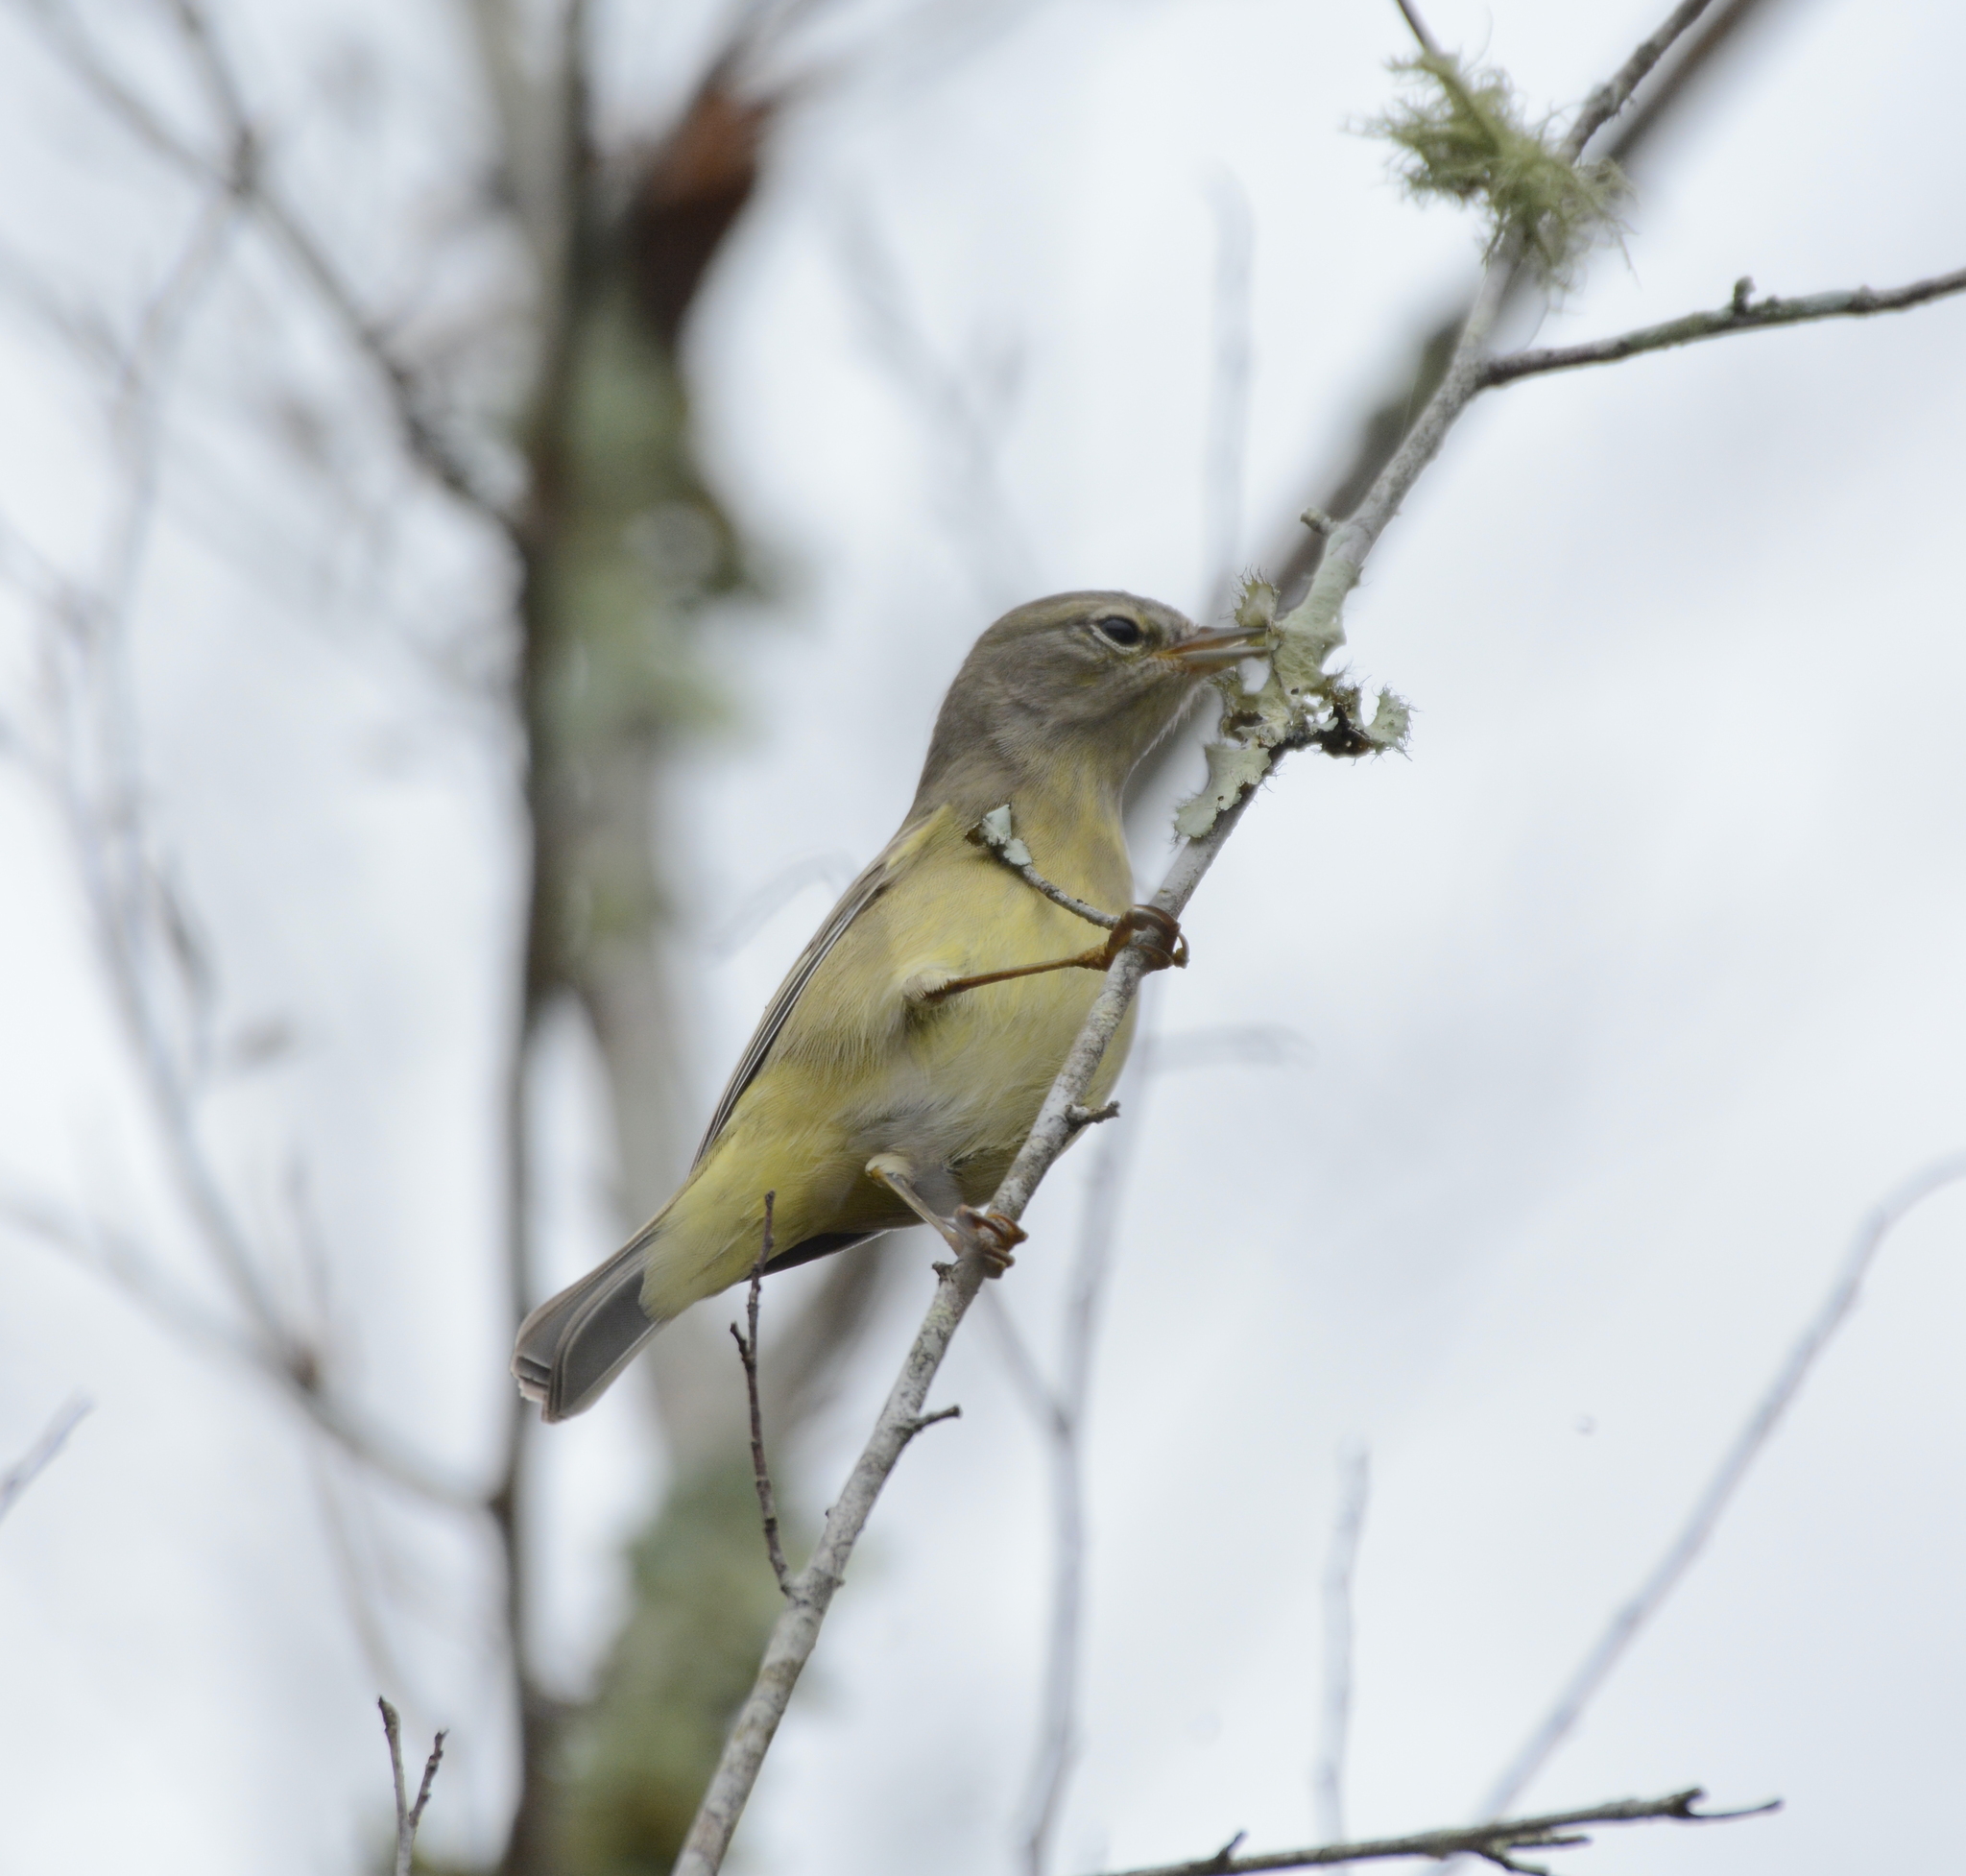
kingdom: Animalia
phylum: Chordata
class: Aves
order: Passeriformes
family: Parulidae
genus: Leiothlypis
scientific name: Leiothlypis celata
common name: Orange-crowned warbler
